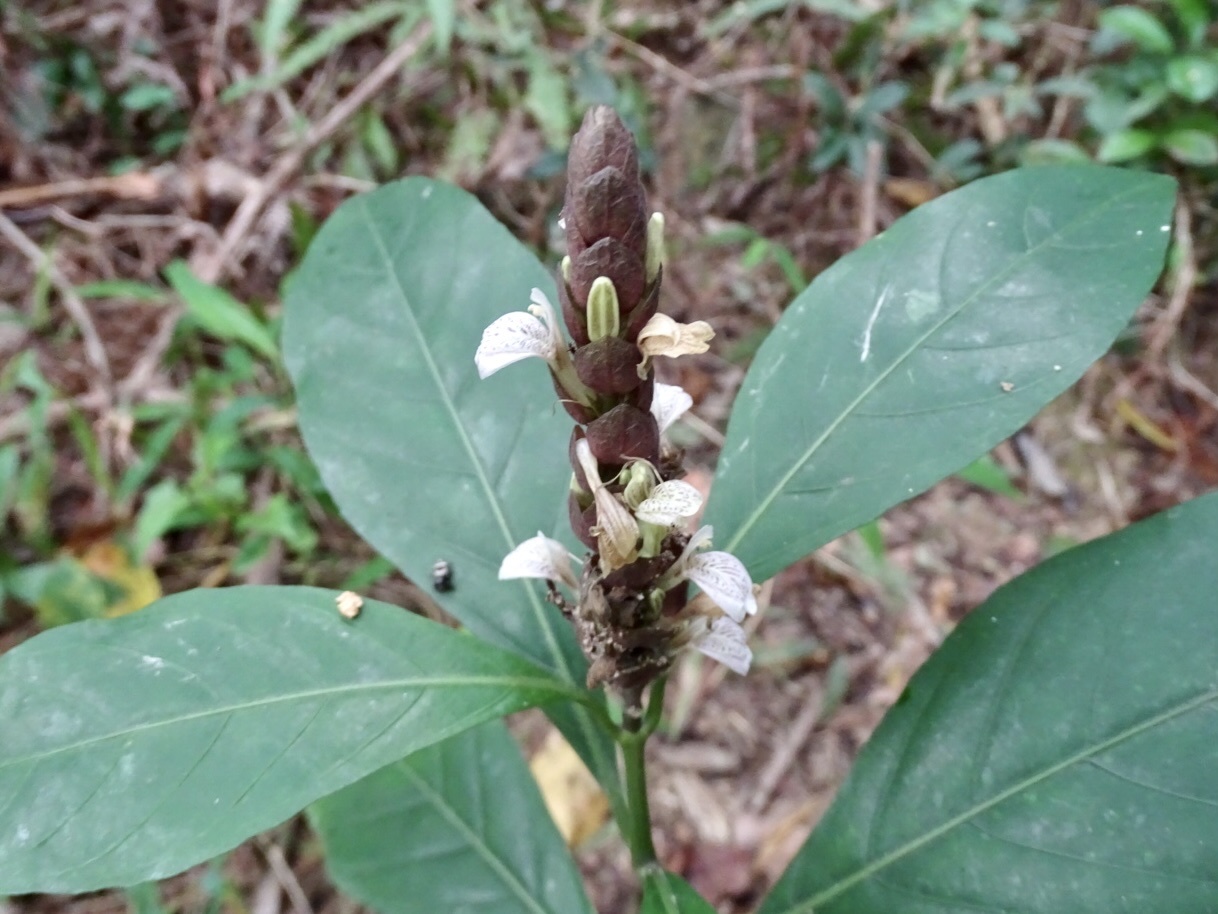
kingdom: Plantae
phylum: Tracheophyta
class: Magnoliopsida
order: Lamiales
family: Acanthaceae
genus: Justicia
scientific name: Justicia ventricosa
